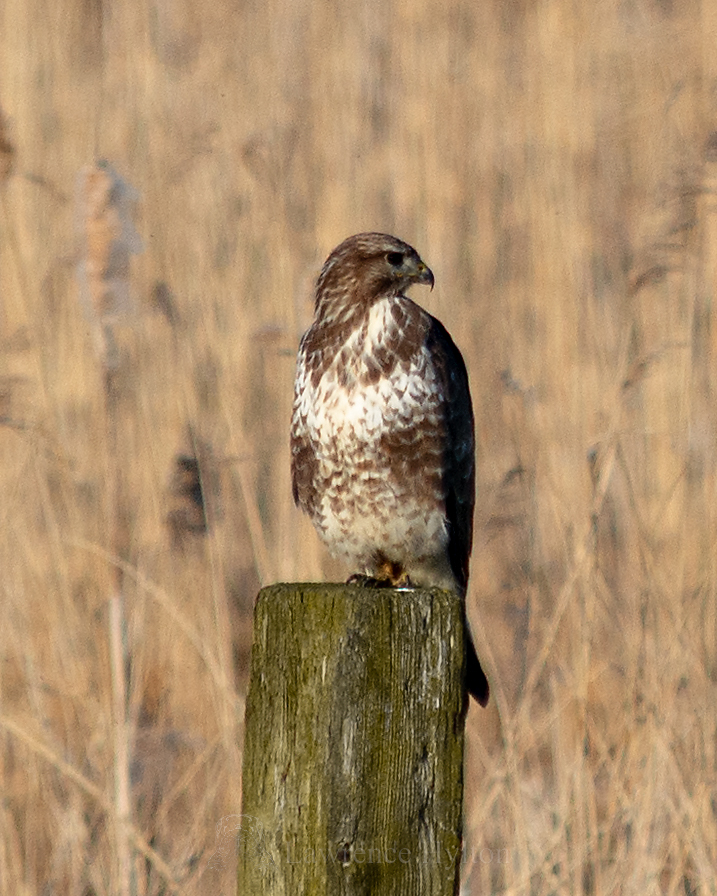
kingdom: Animalia
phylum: Chordata
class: Aves
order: Accipitriformes
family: Accipitridae
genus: Buteo
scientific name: Buteo buteo
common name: Common buzzard
